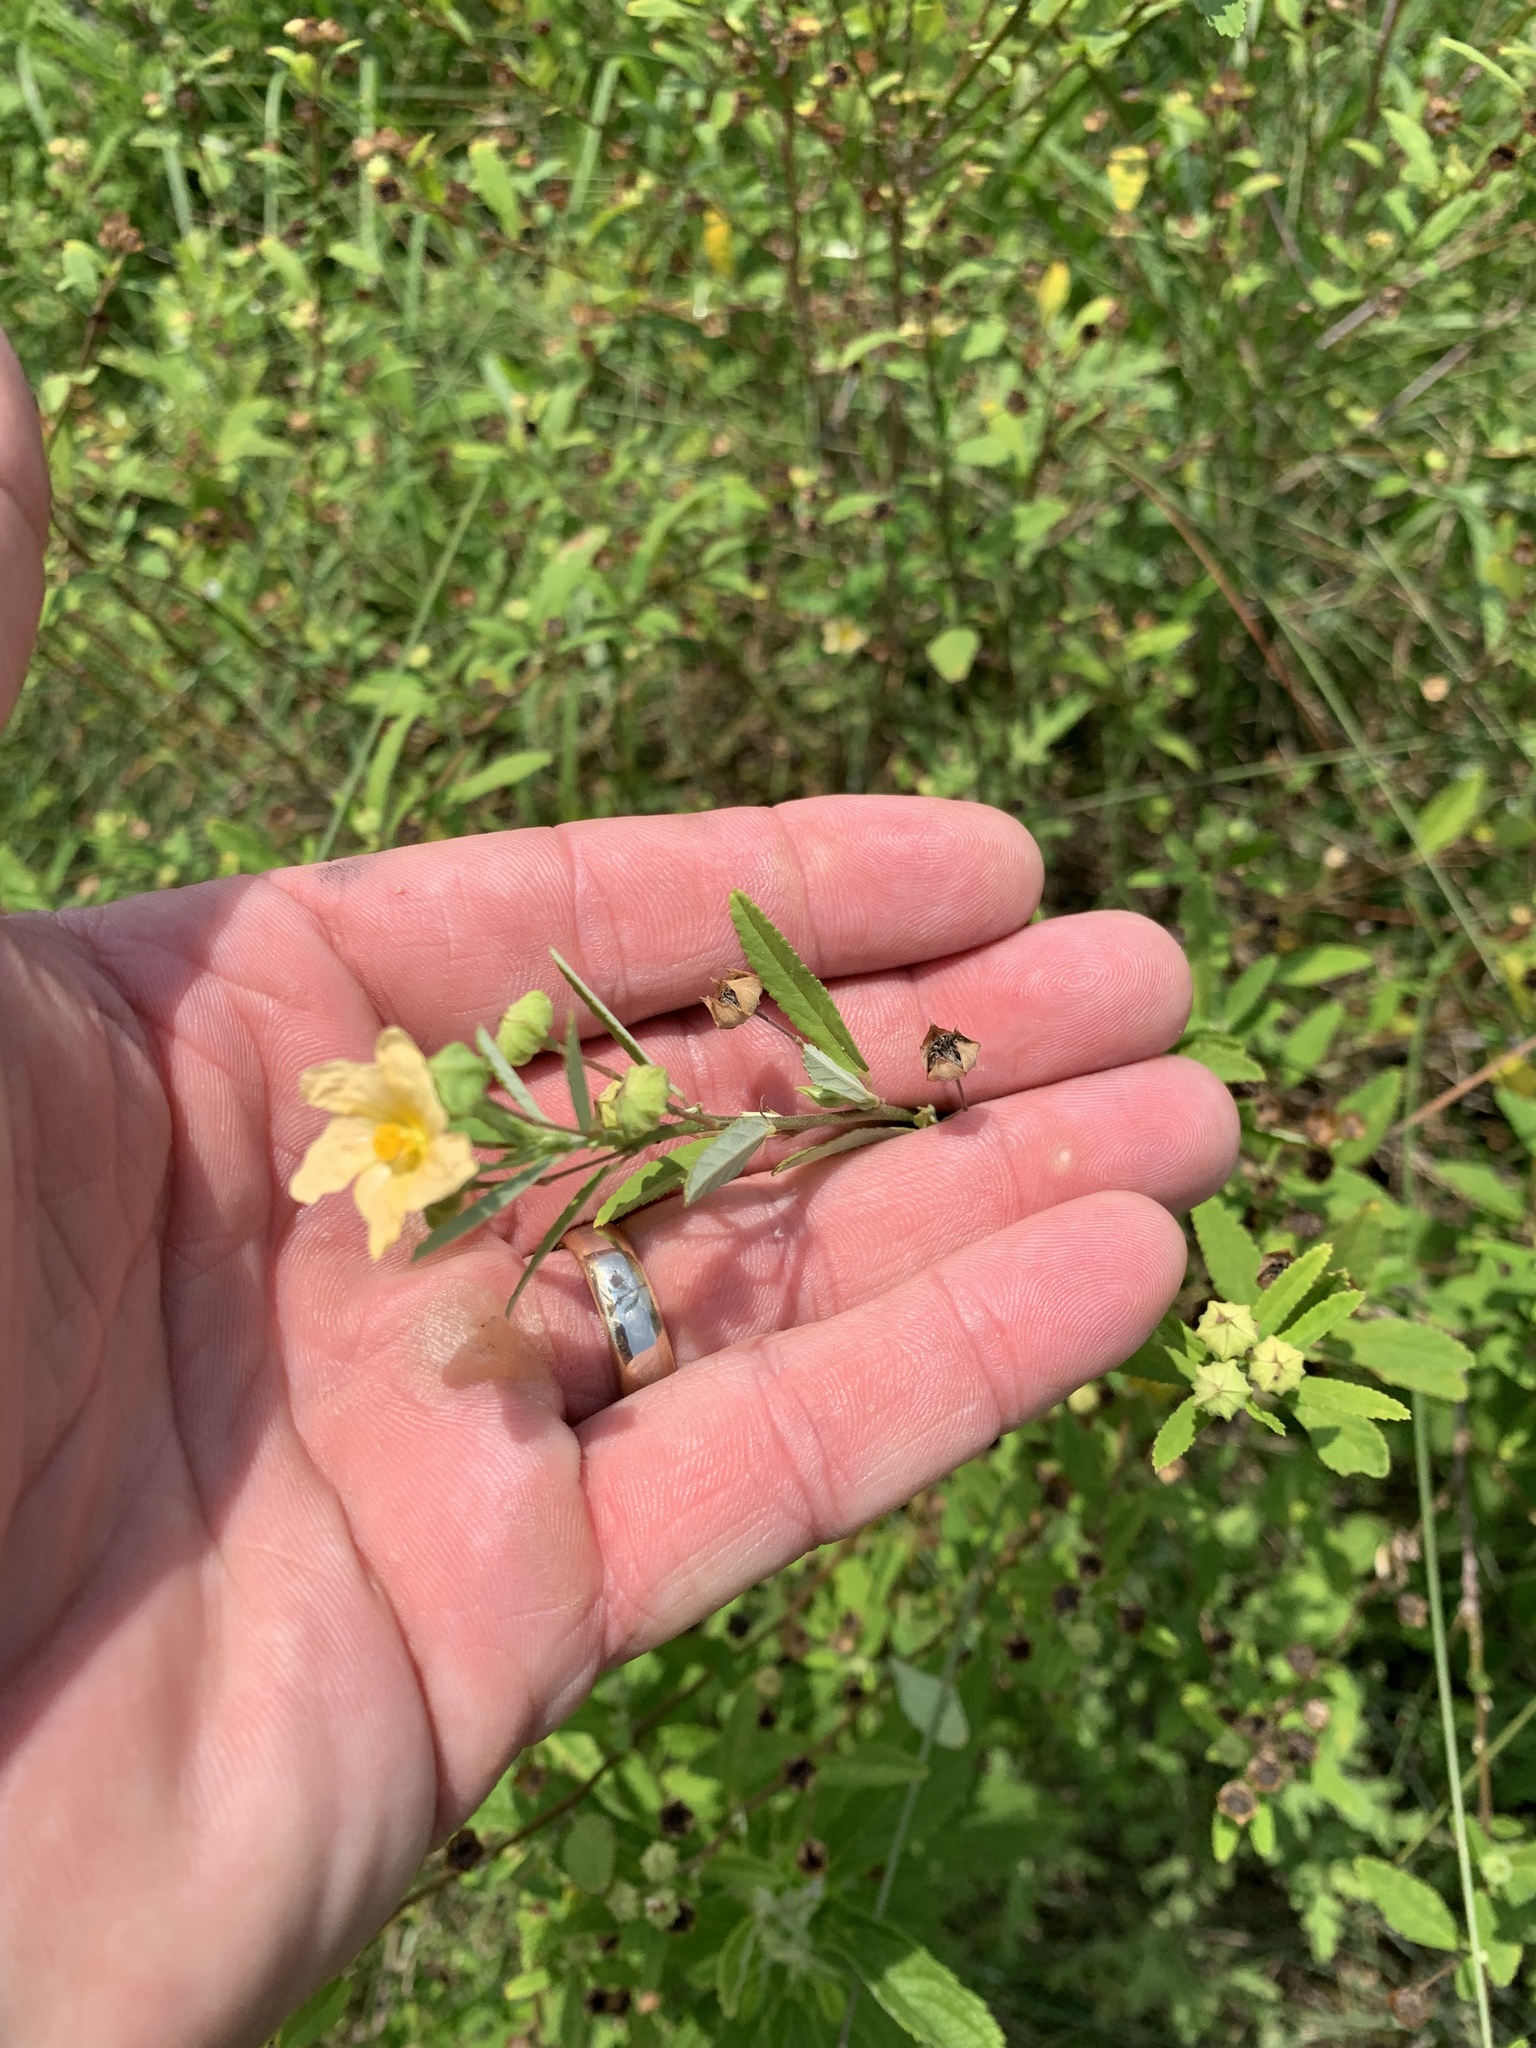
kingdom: Plantae
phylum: Tracheophyta
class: Magnoliopsida
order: Malvales
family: Malvaceae
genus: Sida
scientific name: Sida rhombifolia
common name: Queensland-hemp
